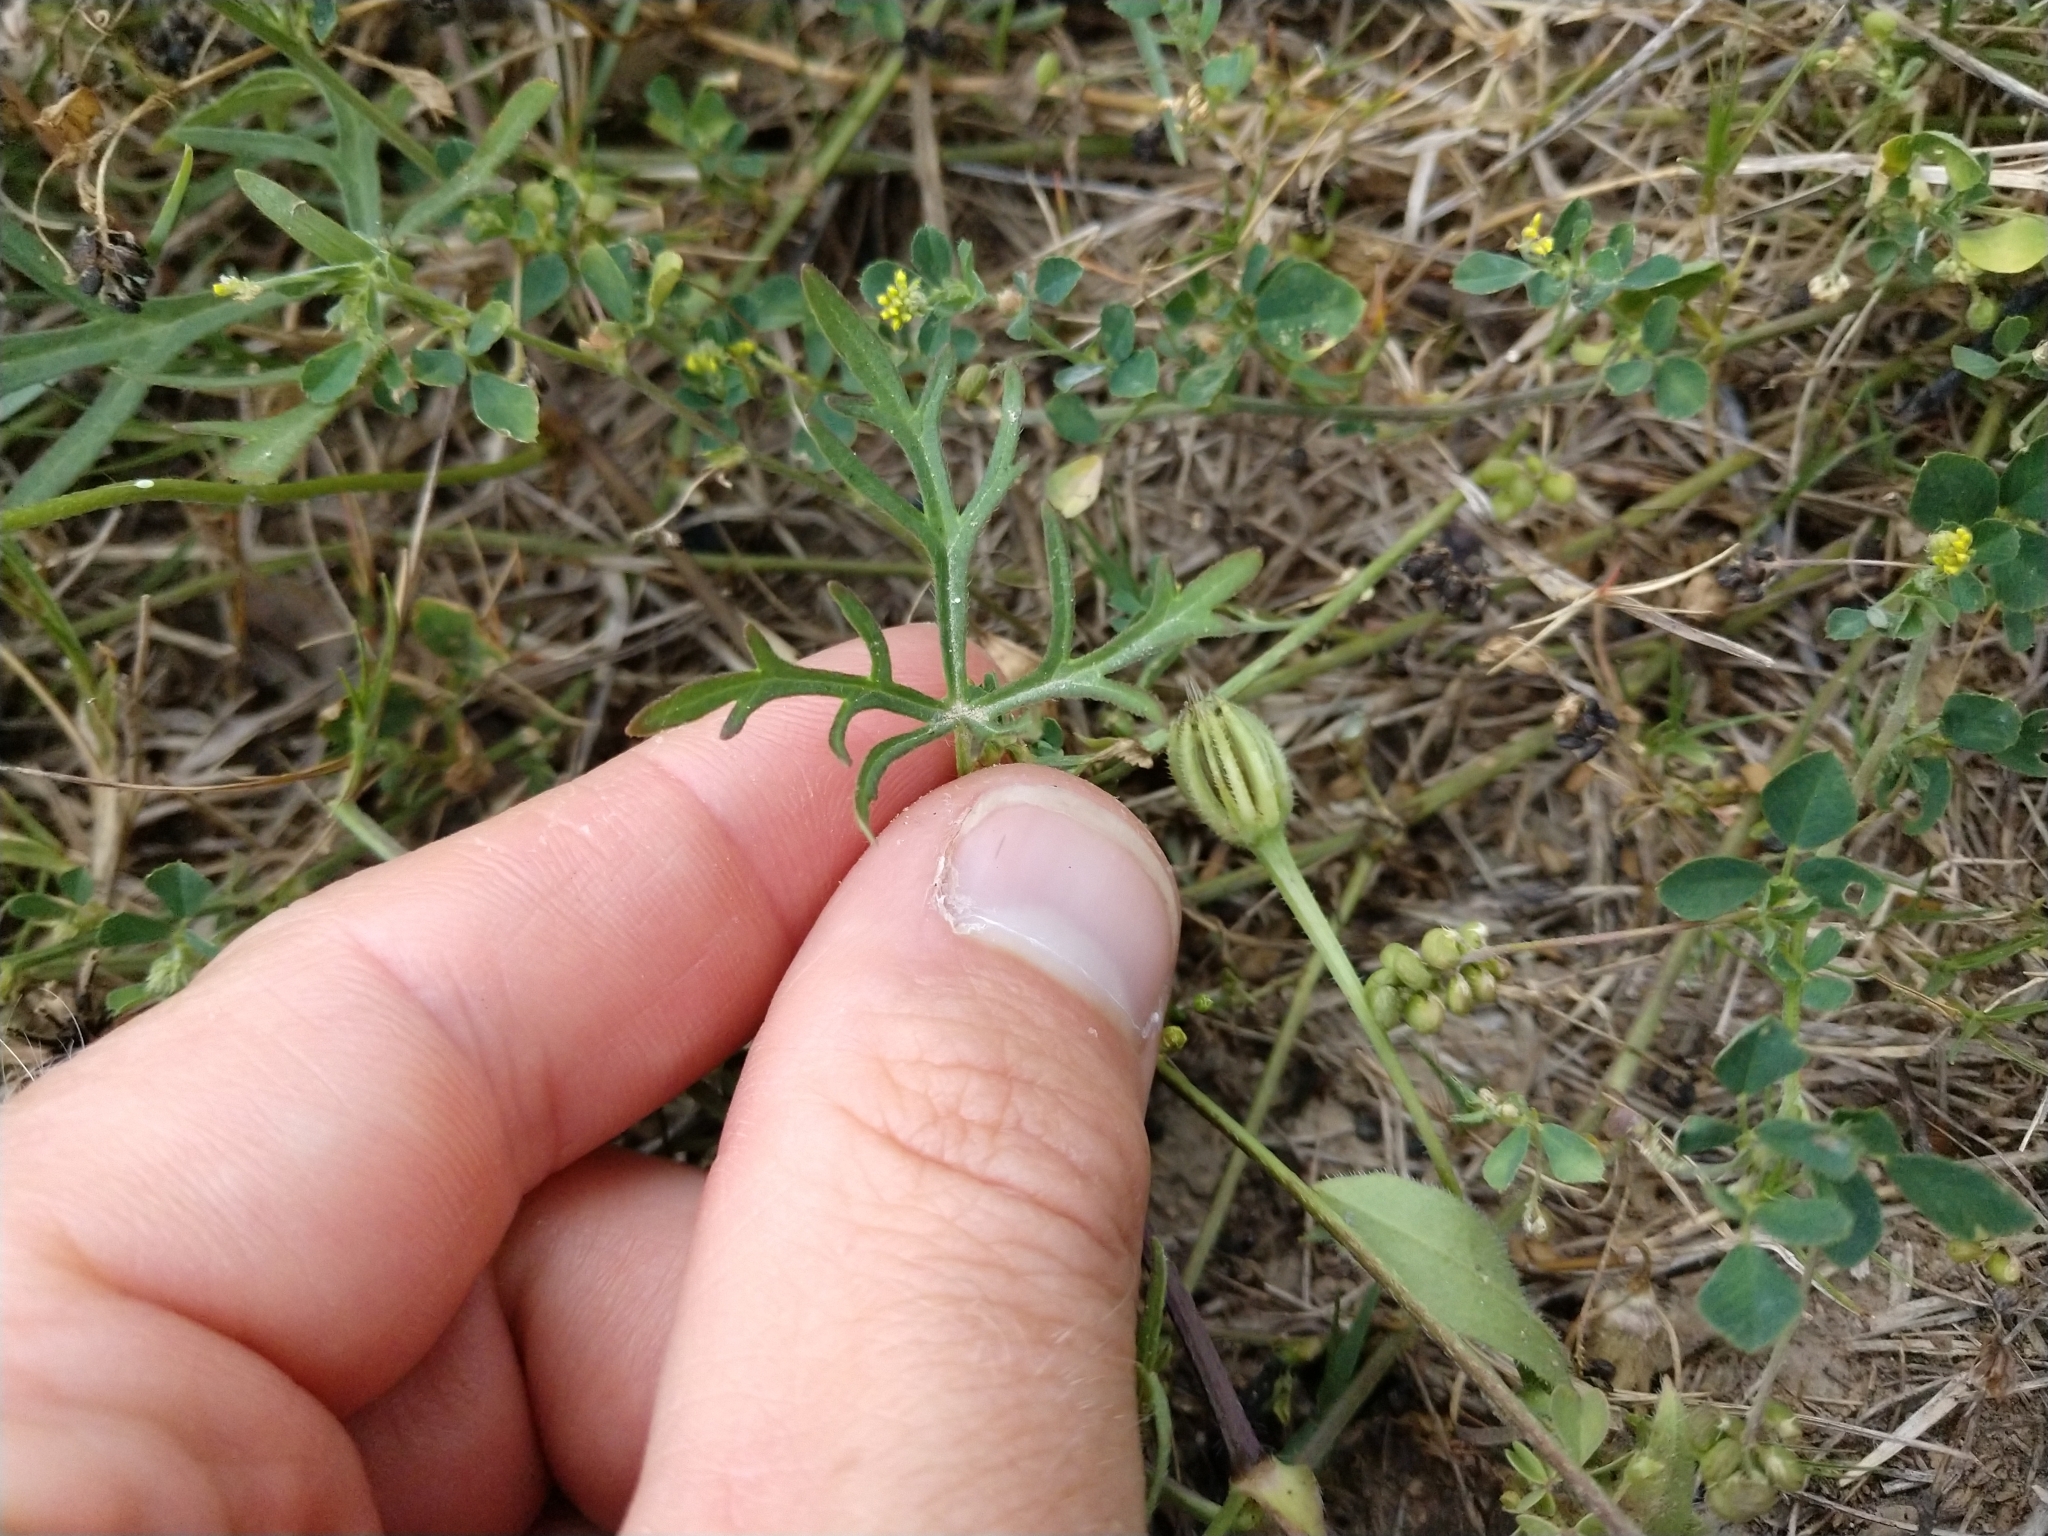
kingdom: Plantae
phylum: Tracheophyta
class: Magnoliopsida
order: Malvales
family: Malvaceae
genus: Callirhoe
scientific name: Callirhoe involucrata
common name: Purple poppy-mallow
